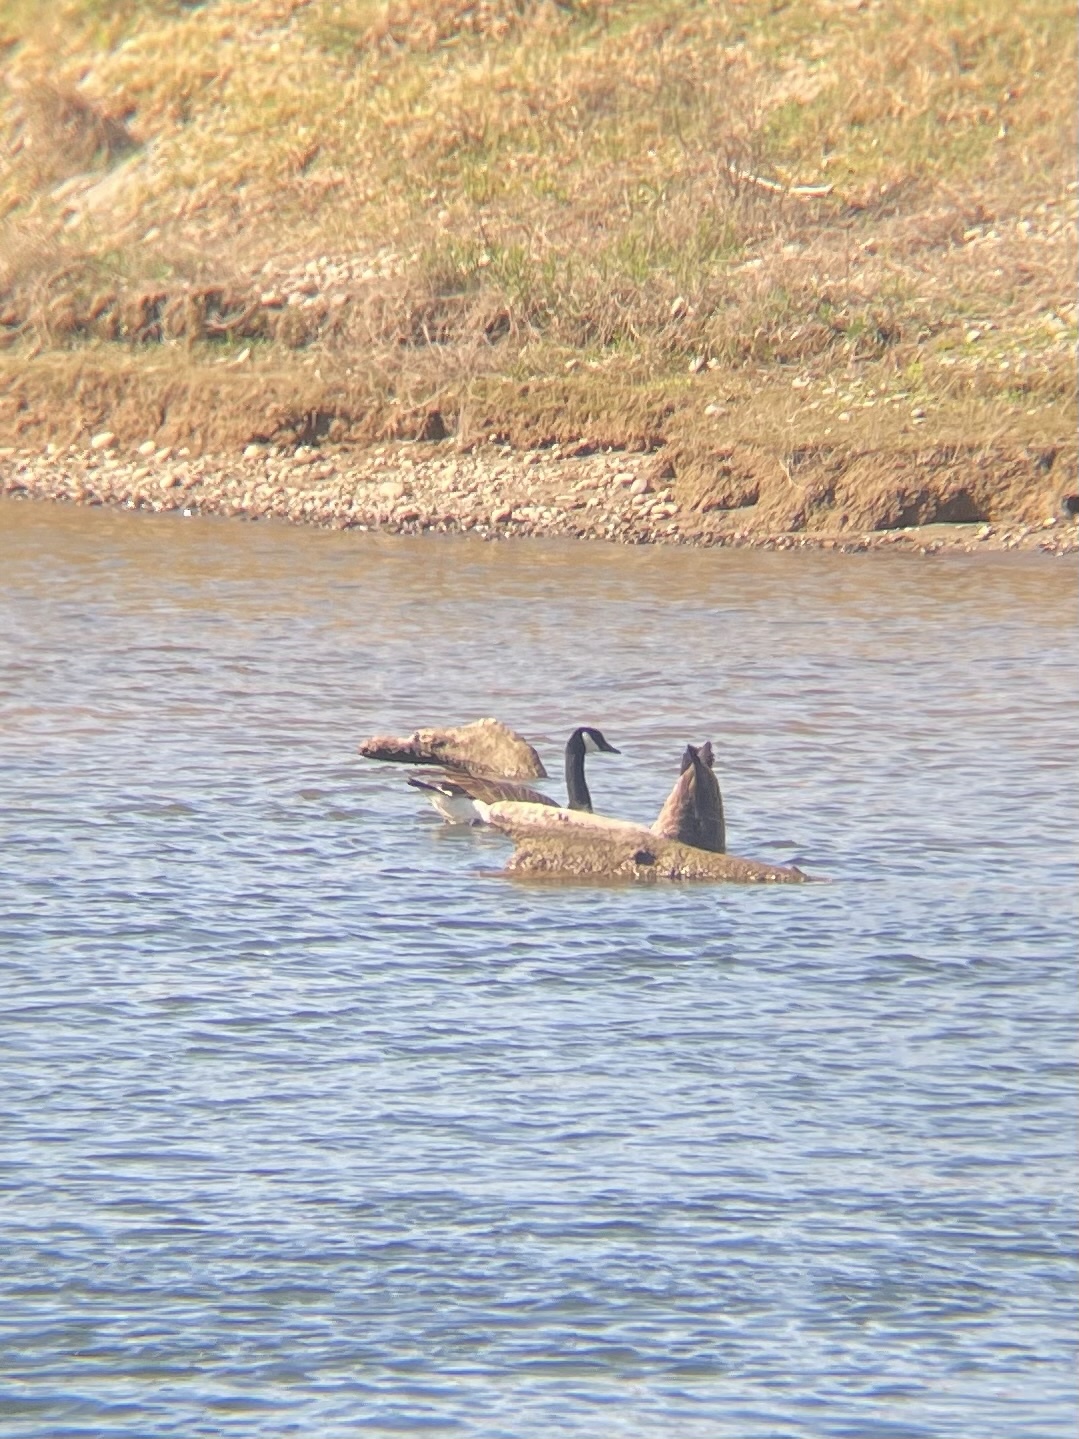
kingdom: Animalia
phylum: Chordata
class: Aves
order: Anseriformes
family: Anatidae
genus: Branta
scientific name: Branta canadensis
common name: Canada goose
